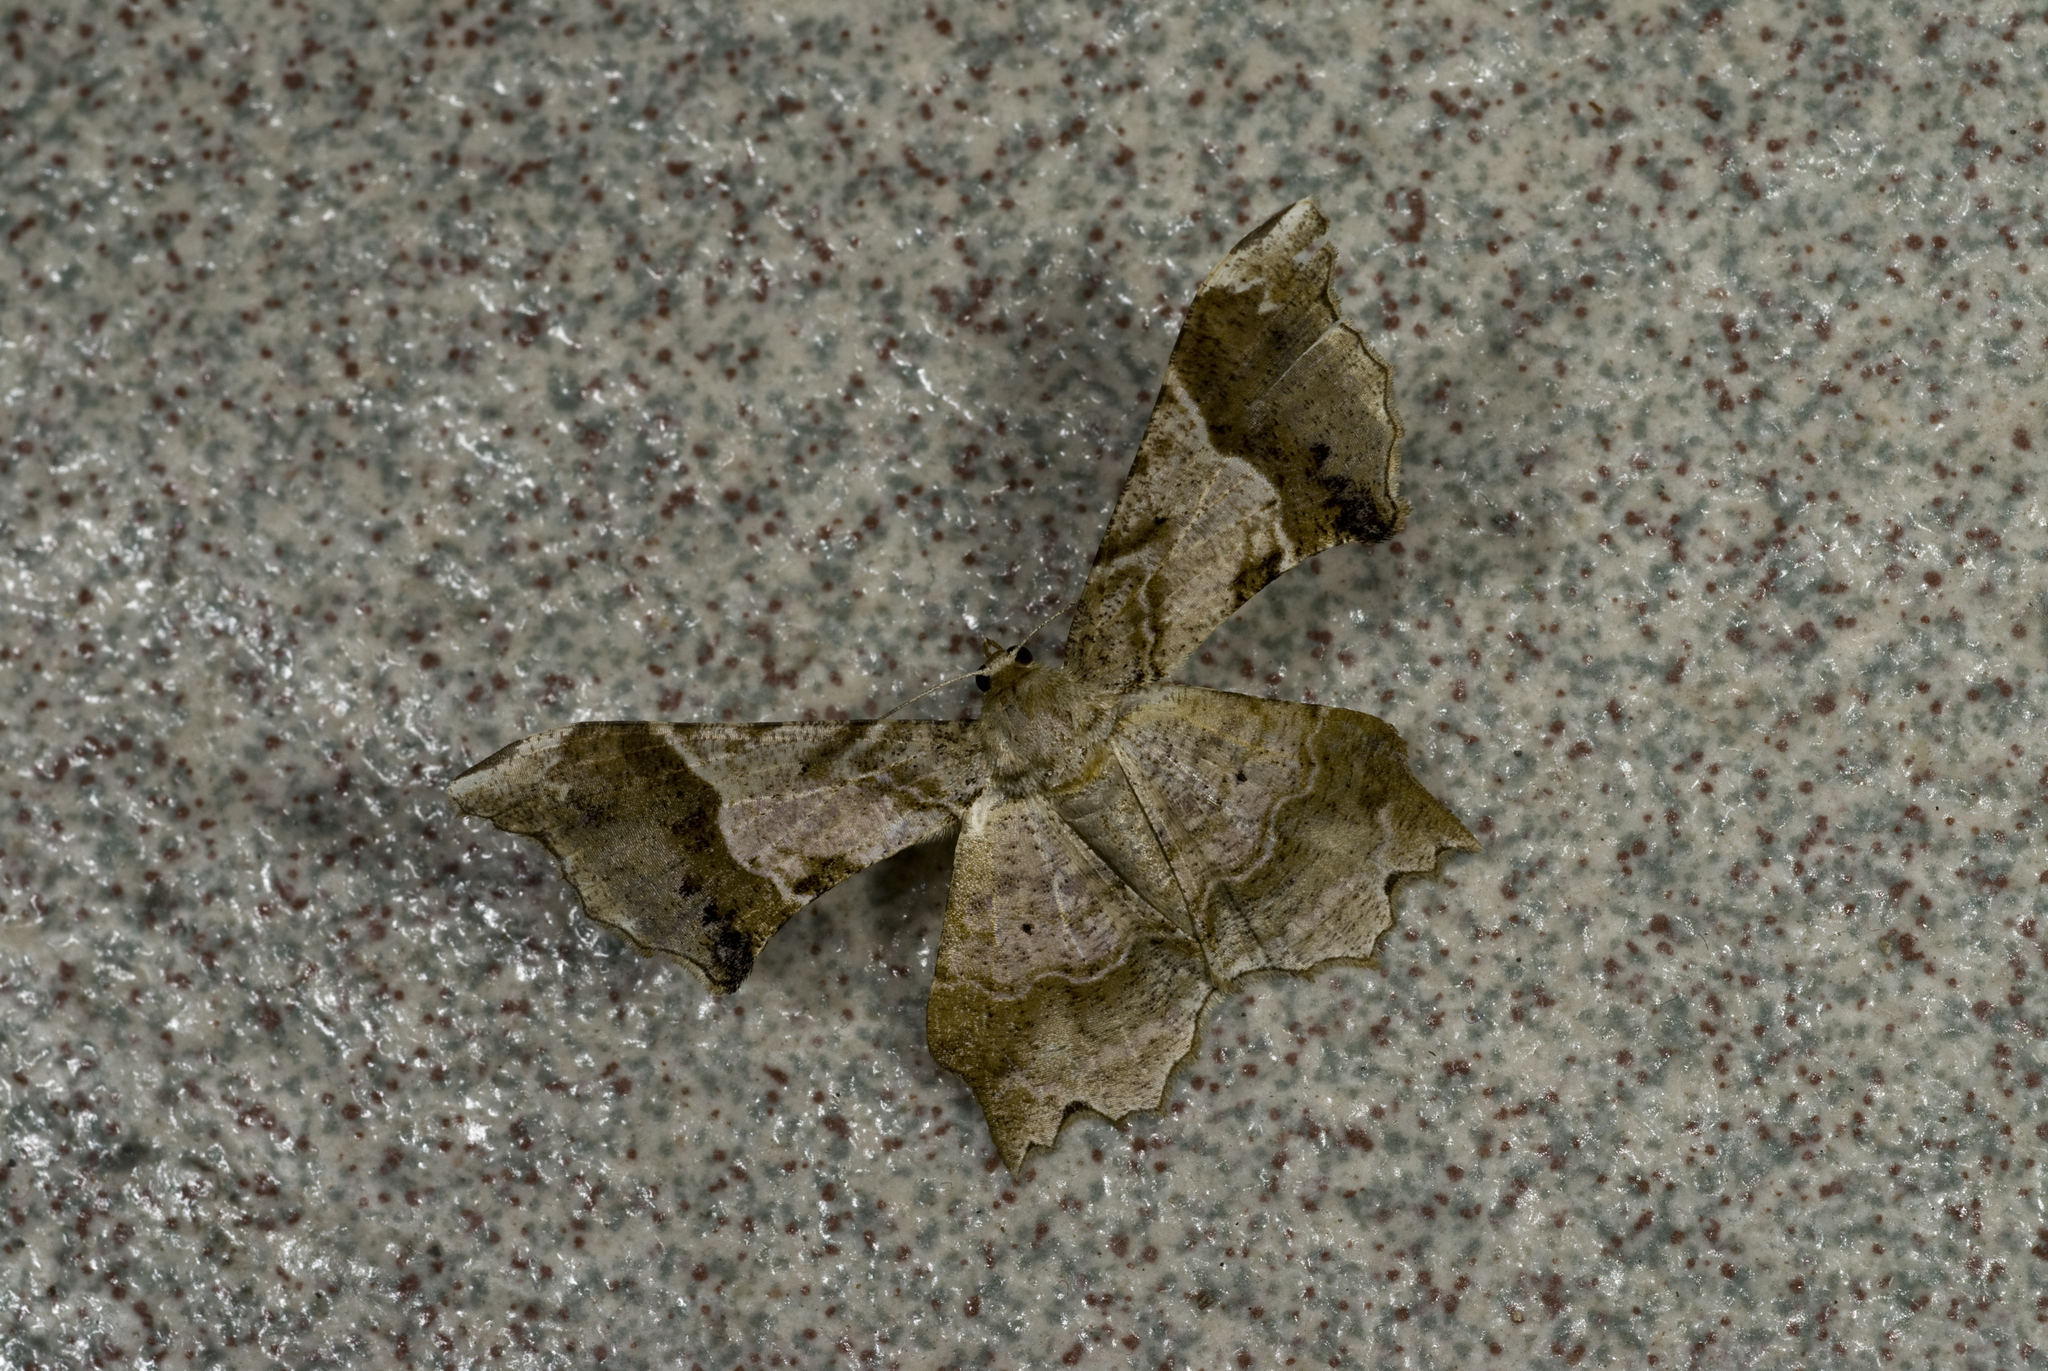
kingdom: Animalia
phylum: Arthropoda
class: Insecta
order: Lepidoptera
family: Geometridae
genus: Krananda
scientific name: Krananda oliveomarginata
